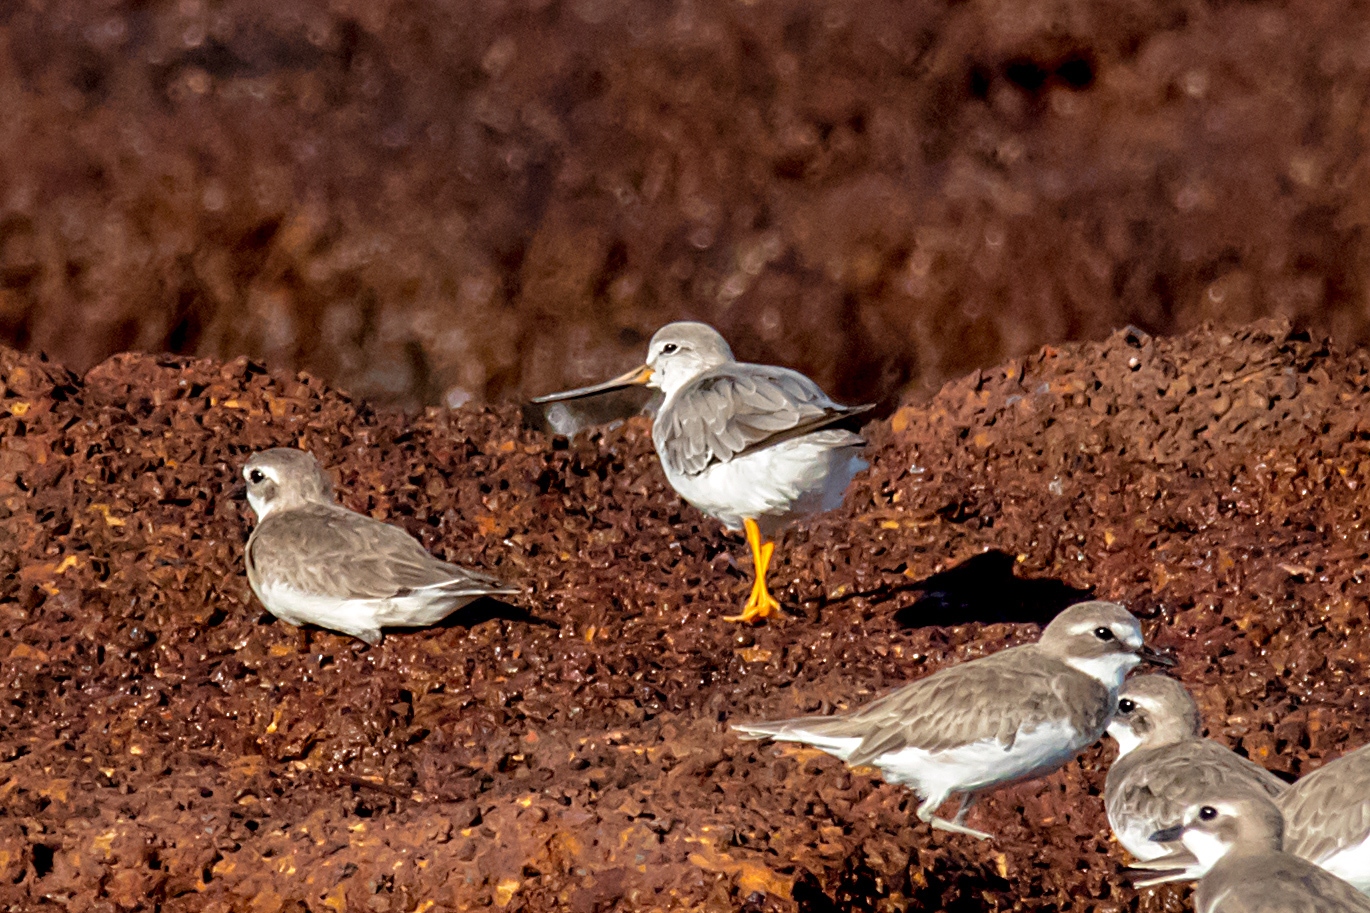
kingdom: Animalia
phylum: Chordata
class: Aves
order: Charadriiformes
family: Scolopacidae
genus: Xenus
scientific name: Xenus cinereus
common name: Terek sandpiper
